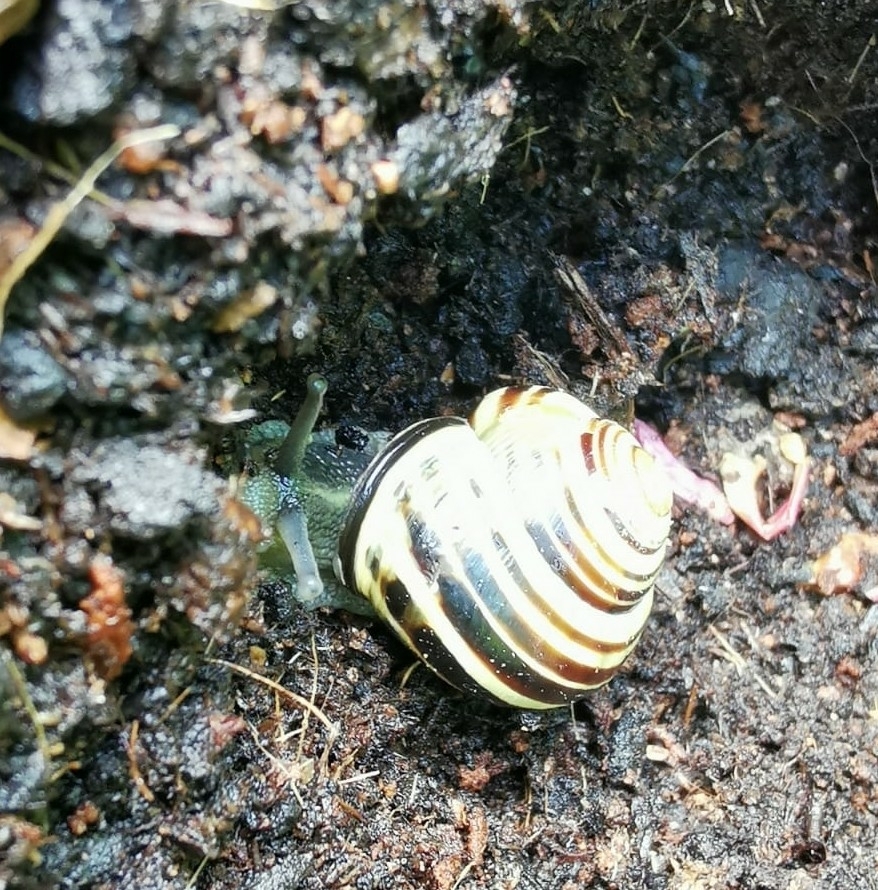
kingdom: Animalia
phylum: Mollusca
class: Gastropoda
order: Stylommatophora
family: Helicidae
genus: Cepaea
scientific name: Cepaea nemoralis
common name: Grovesnail
